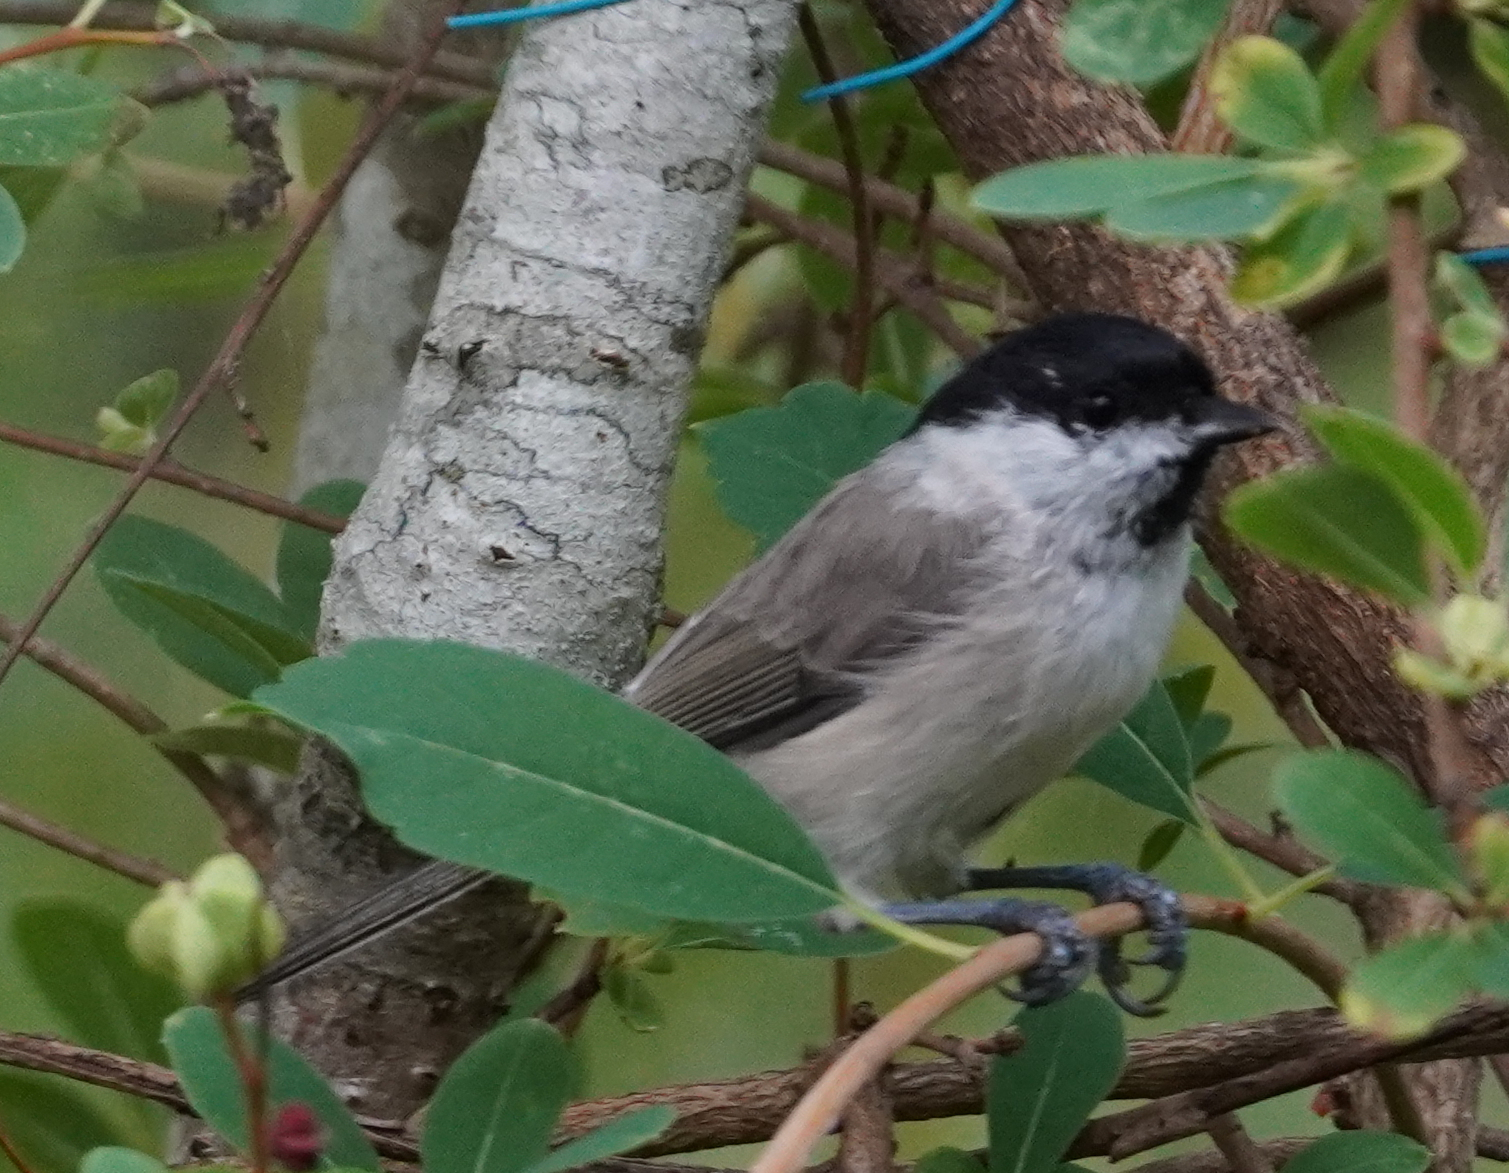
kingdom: Animalia
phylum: Chordata
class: Aves
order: Passeriformes
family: Paridae
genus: Poecile
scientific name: Poecile palustris
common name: Marsh tit
